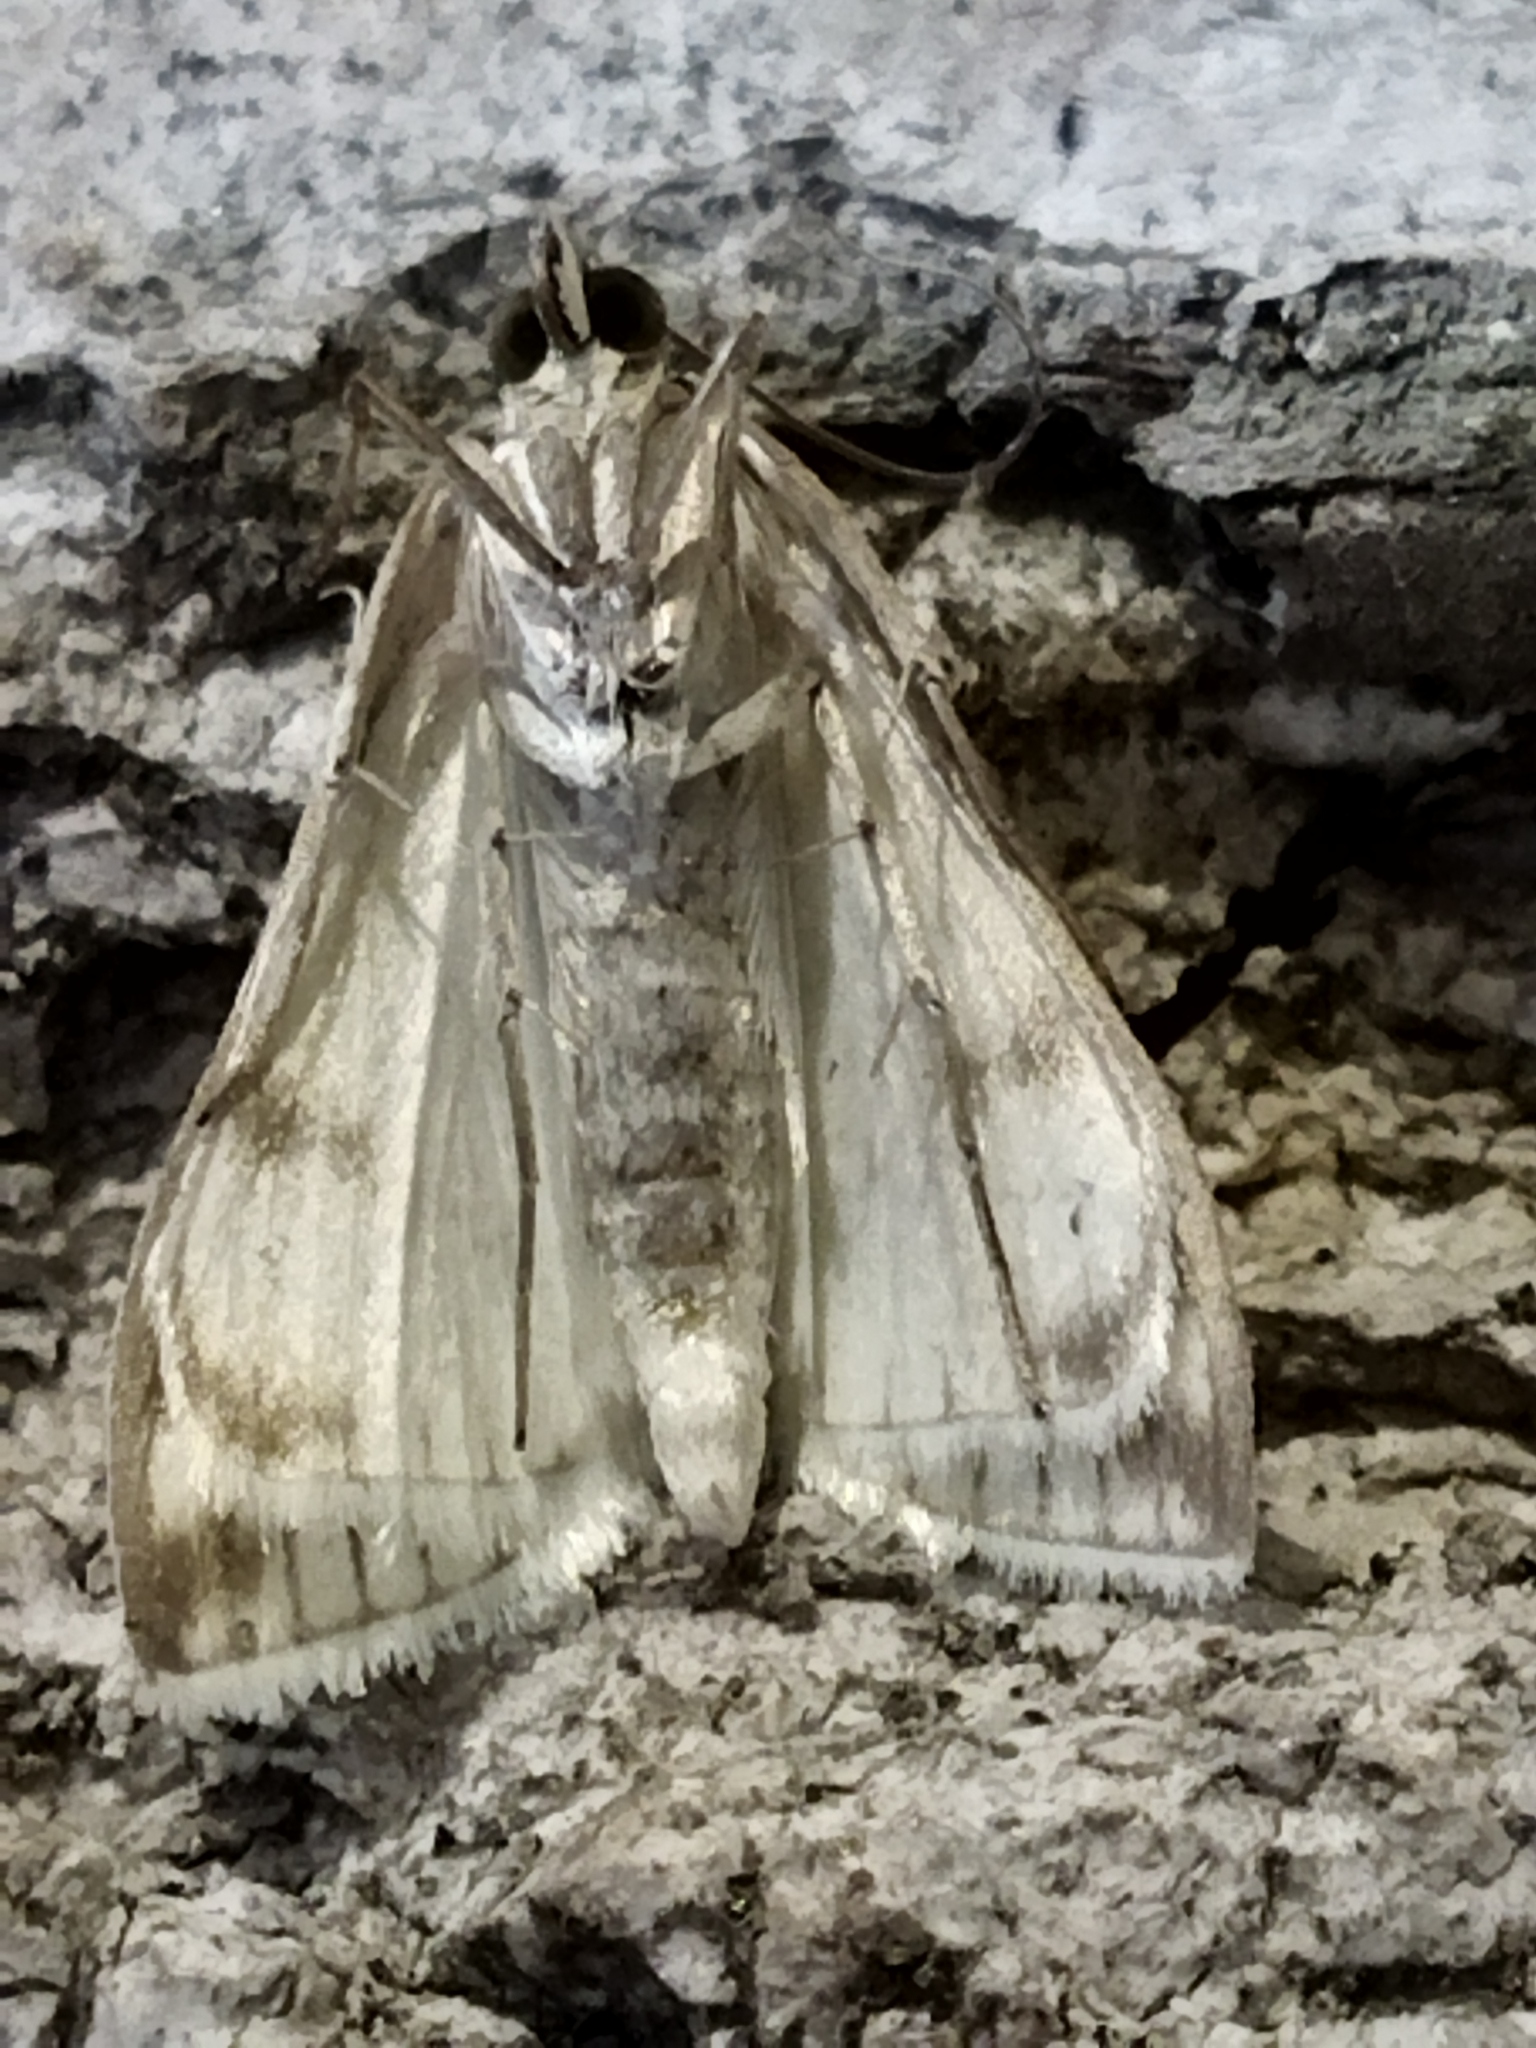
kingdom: Animalia
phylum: Arthropoda
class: Insecta
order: Lepidoptera
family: Crambidae
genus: Sitochroa
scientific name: Sitochroa palealis
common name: Greenish-yellow sitochroa moth
